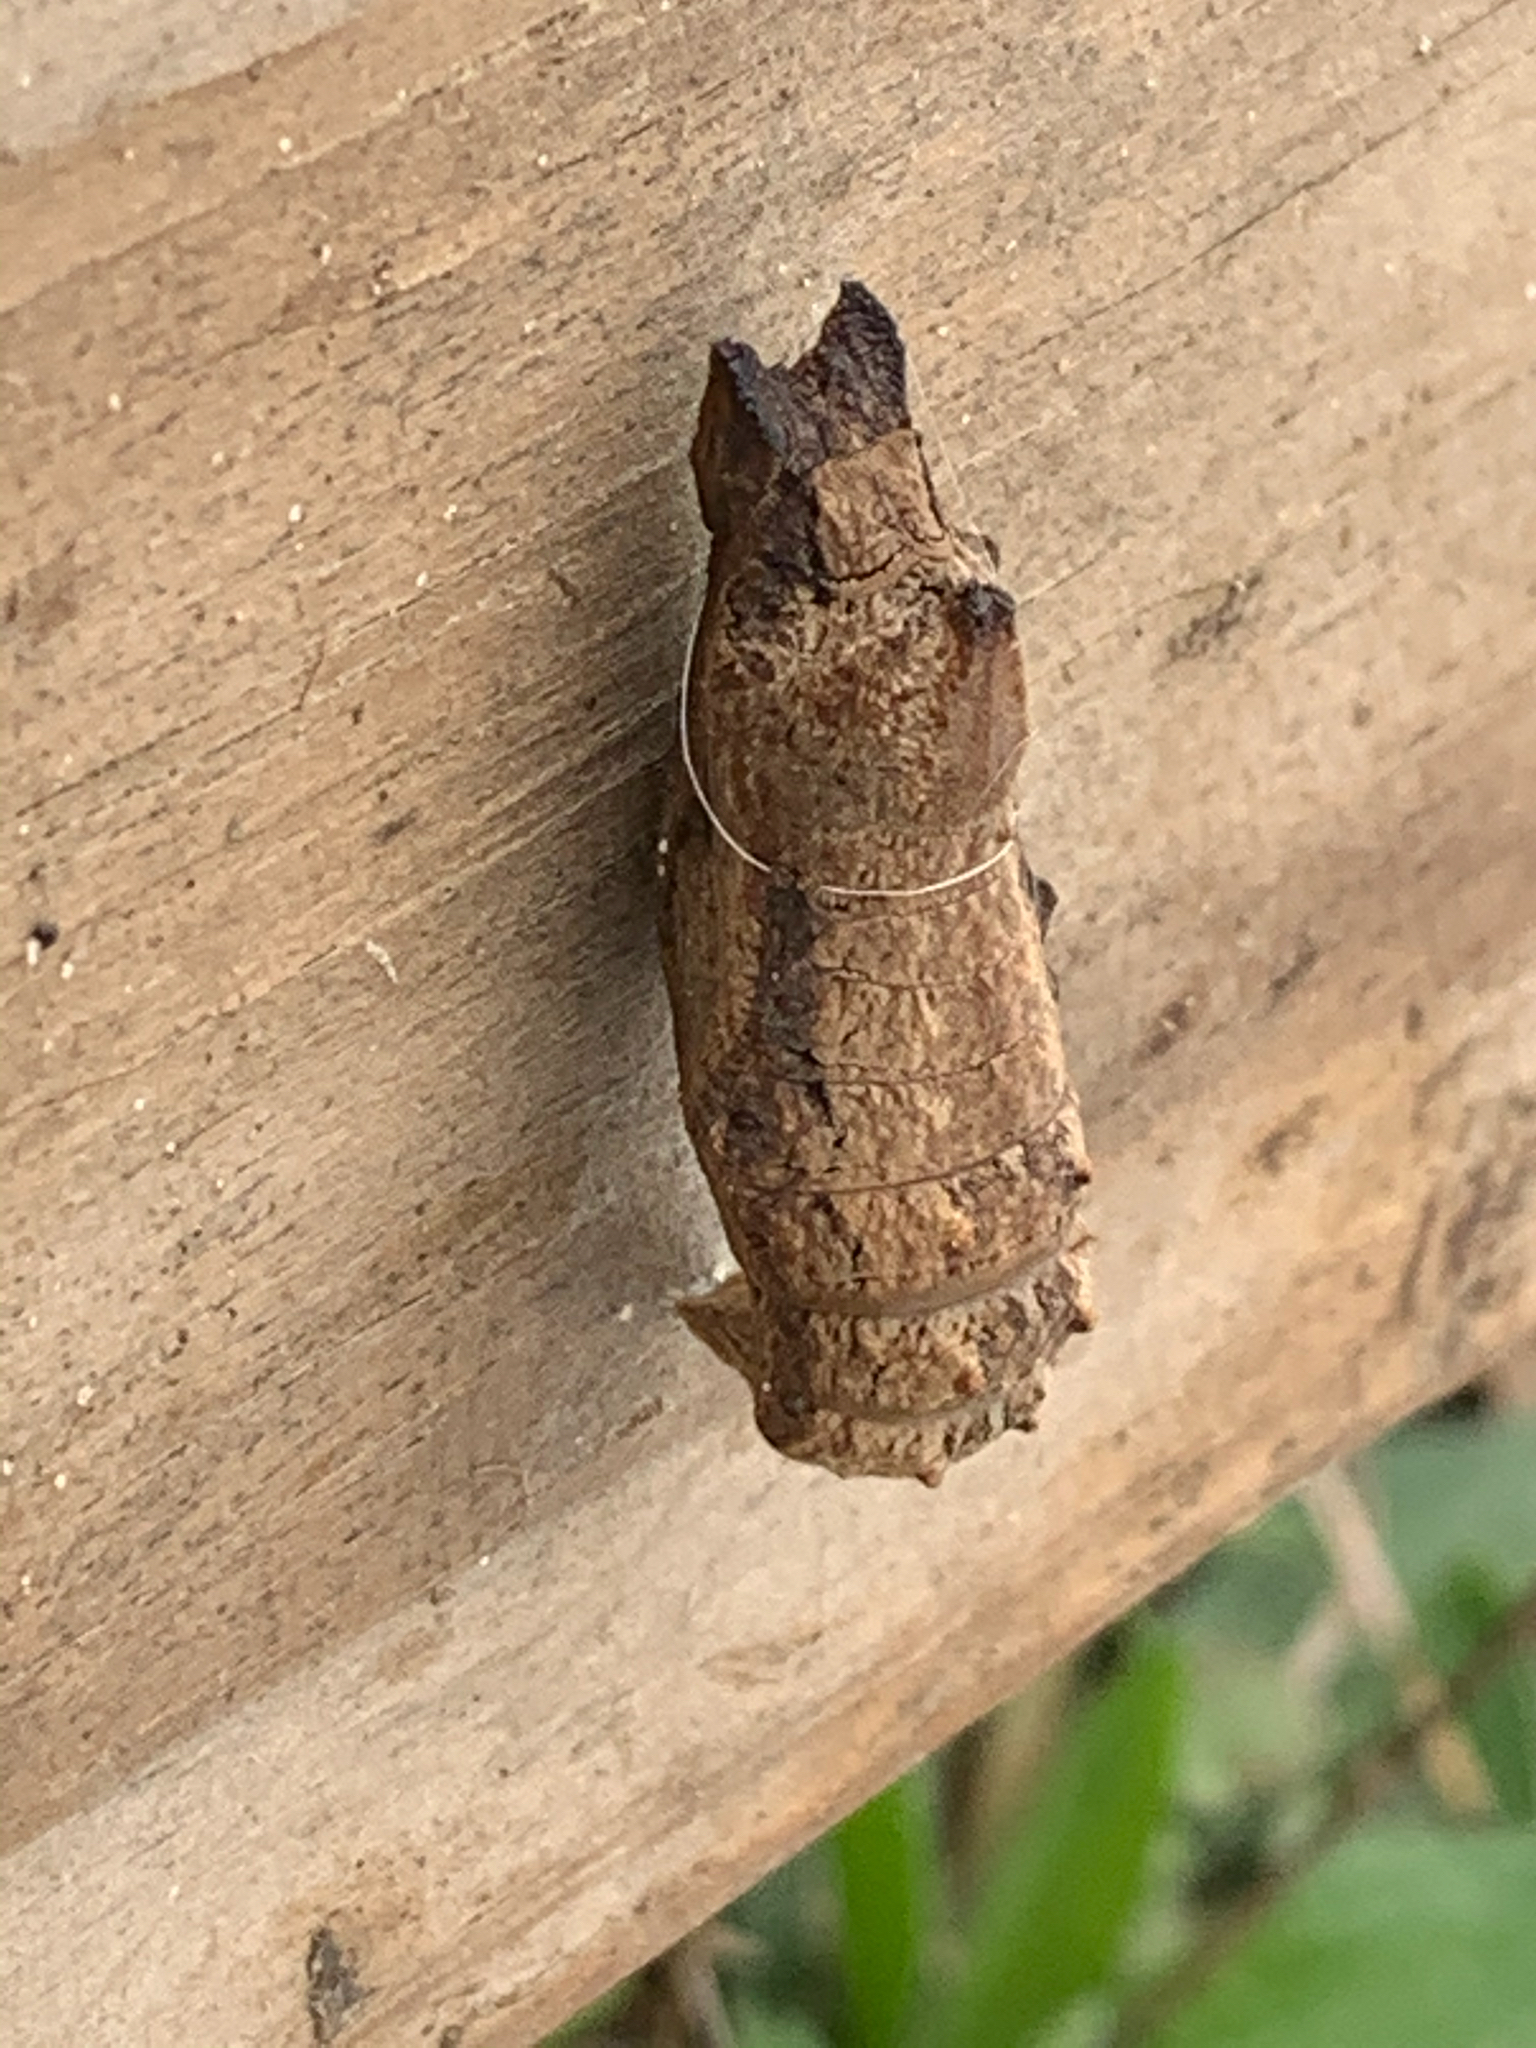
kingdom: Animalia
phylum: Arthropoda
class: Insecta
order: Lepidoptera
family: Papilionidae
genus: Papilio
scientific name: Papilio polyxenes
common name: Black swallowtail
